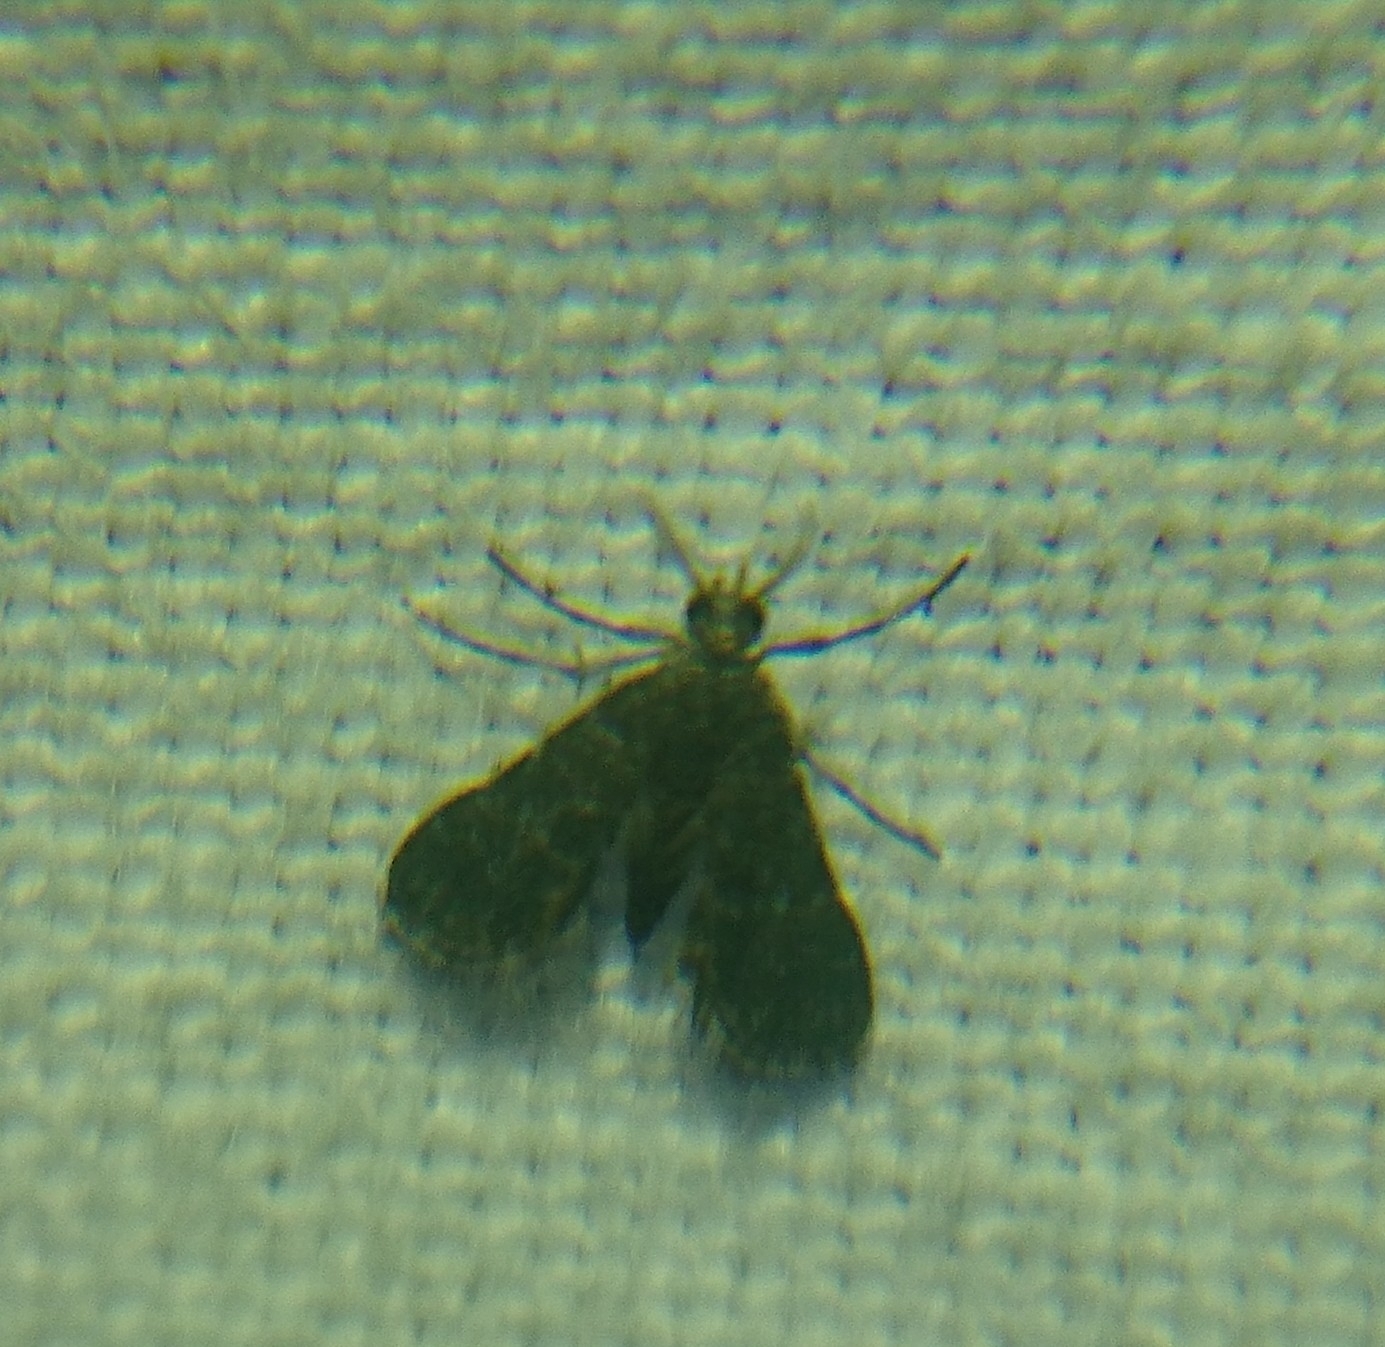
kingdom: Animalia
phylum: Arthropoda
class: Insecta
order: Lepidoptera
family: Crambidae
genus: Elophila
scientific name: Elophila tinealis
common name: Black duckweed moth
